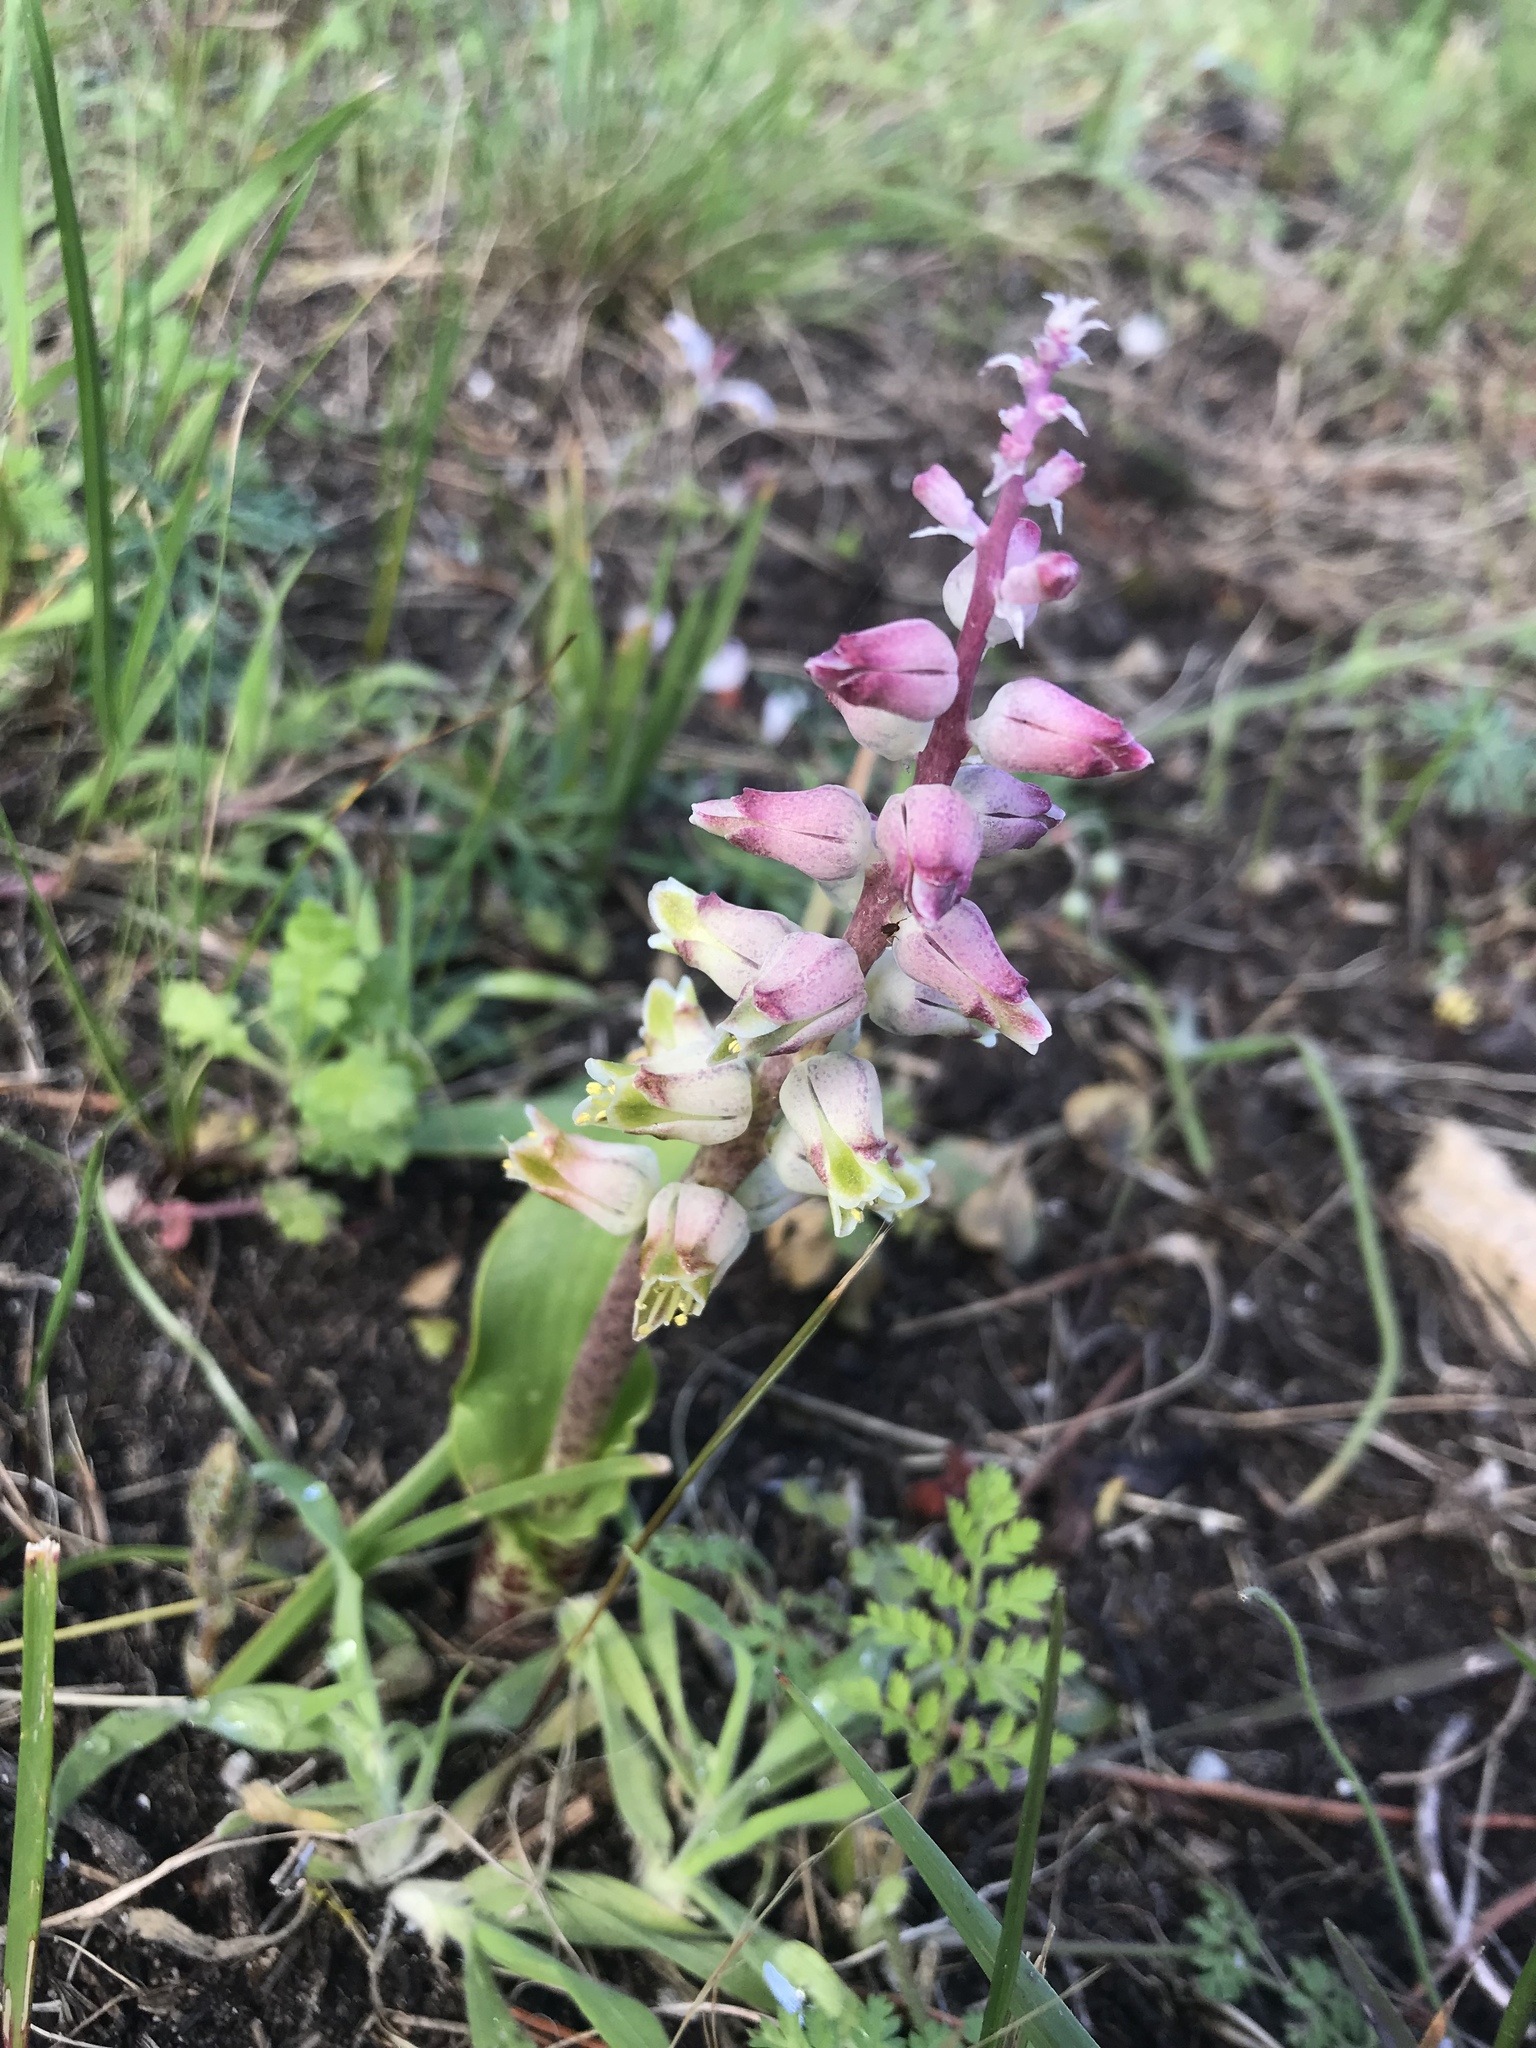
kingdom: Plantae
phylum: Tracheophyta
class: Liliopsida
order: Asparagales
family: Asparagaceae
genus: Lachenalia
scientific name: Lachenalia variegata
